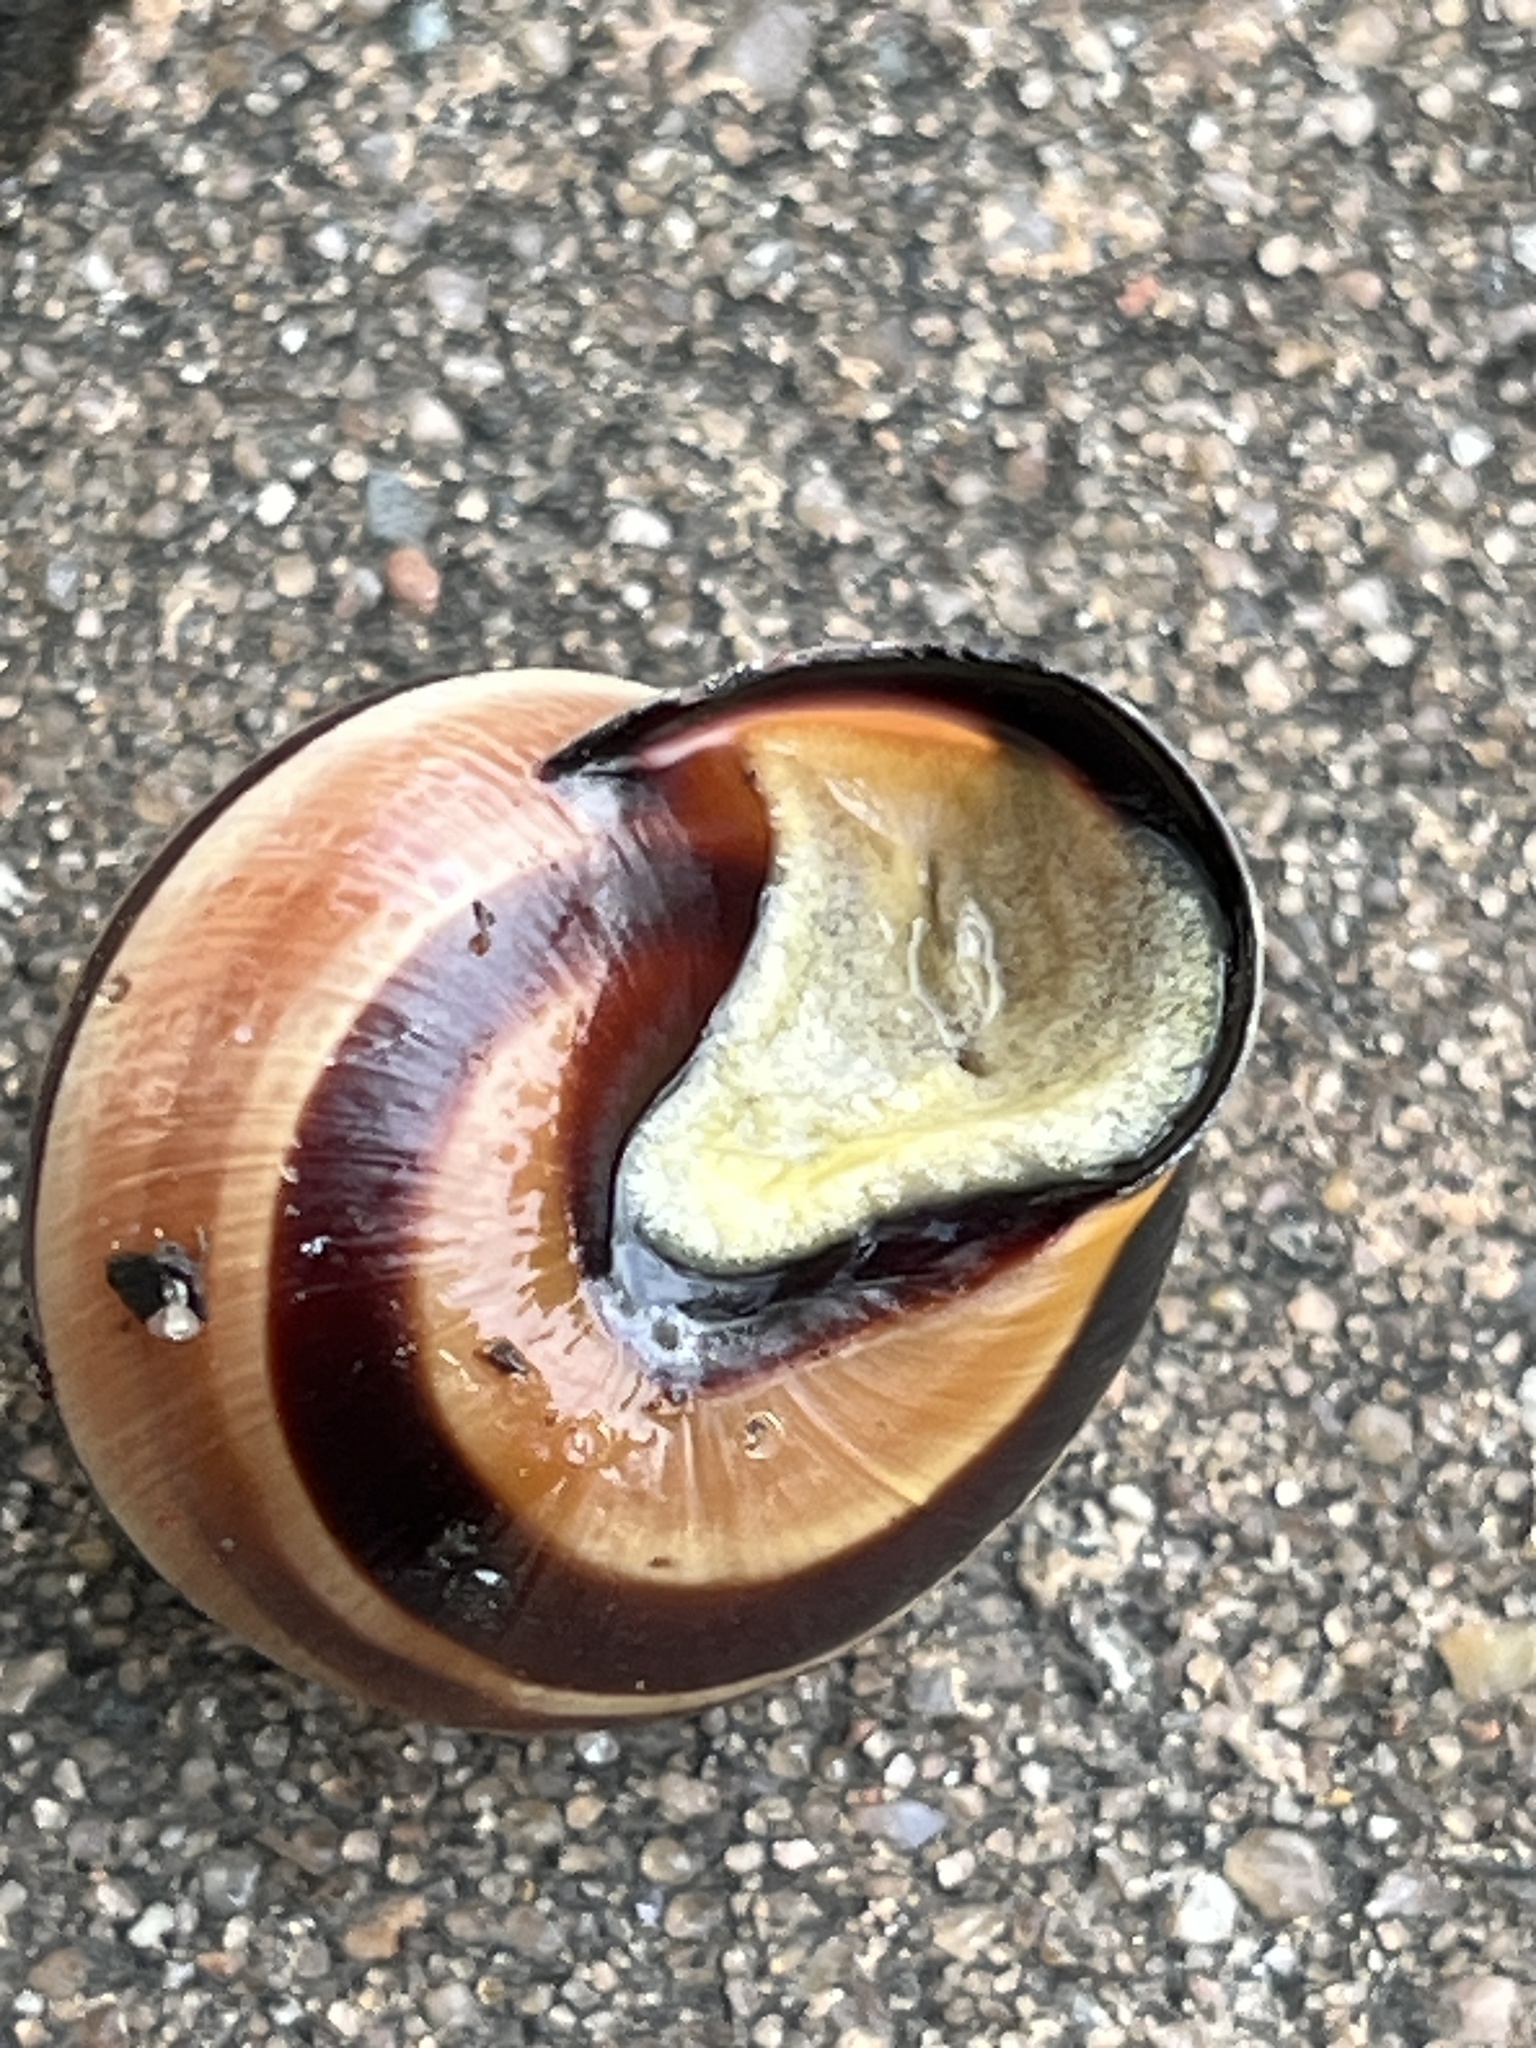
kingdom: Animalia
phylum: Mollusca
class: Gastropoda
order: Stylommatophora
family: Helicidae
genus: Cepaea
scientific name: Cepaea nemoralis
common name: Grovesnail
